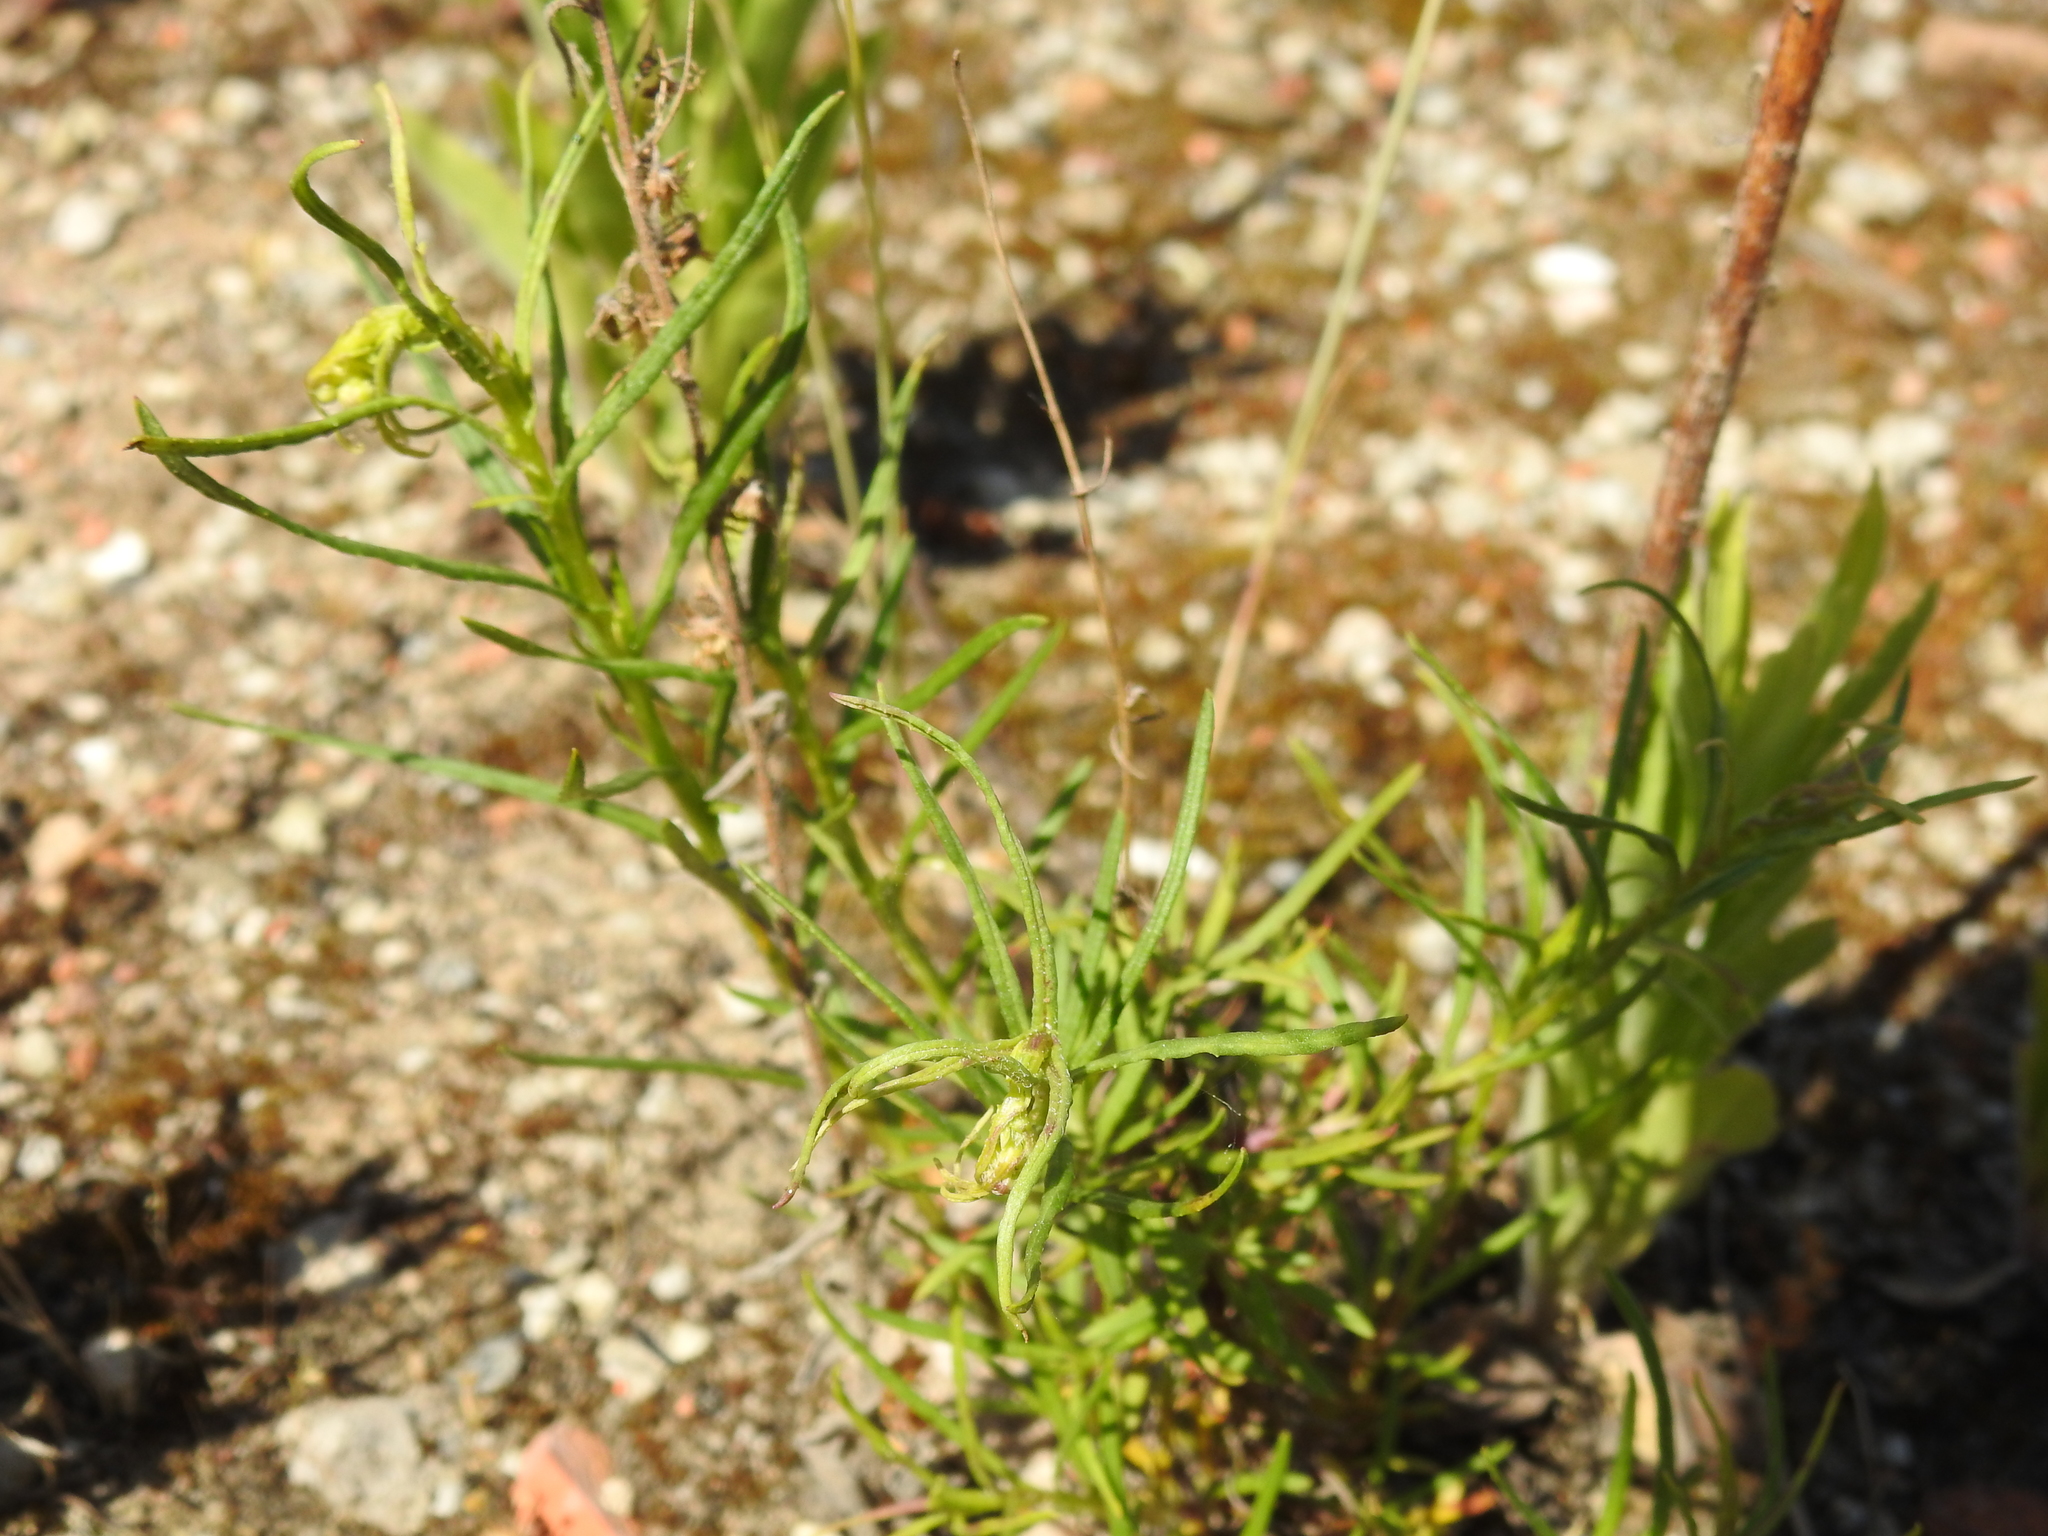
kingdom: Plantae
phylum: Tracheophyta
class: Magnoliopsida
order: Asterales
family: Asteraceae
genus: Senecio
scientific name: Senecio inaequidens
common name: Narrow-leaved ragwort
